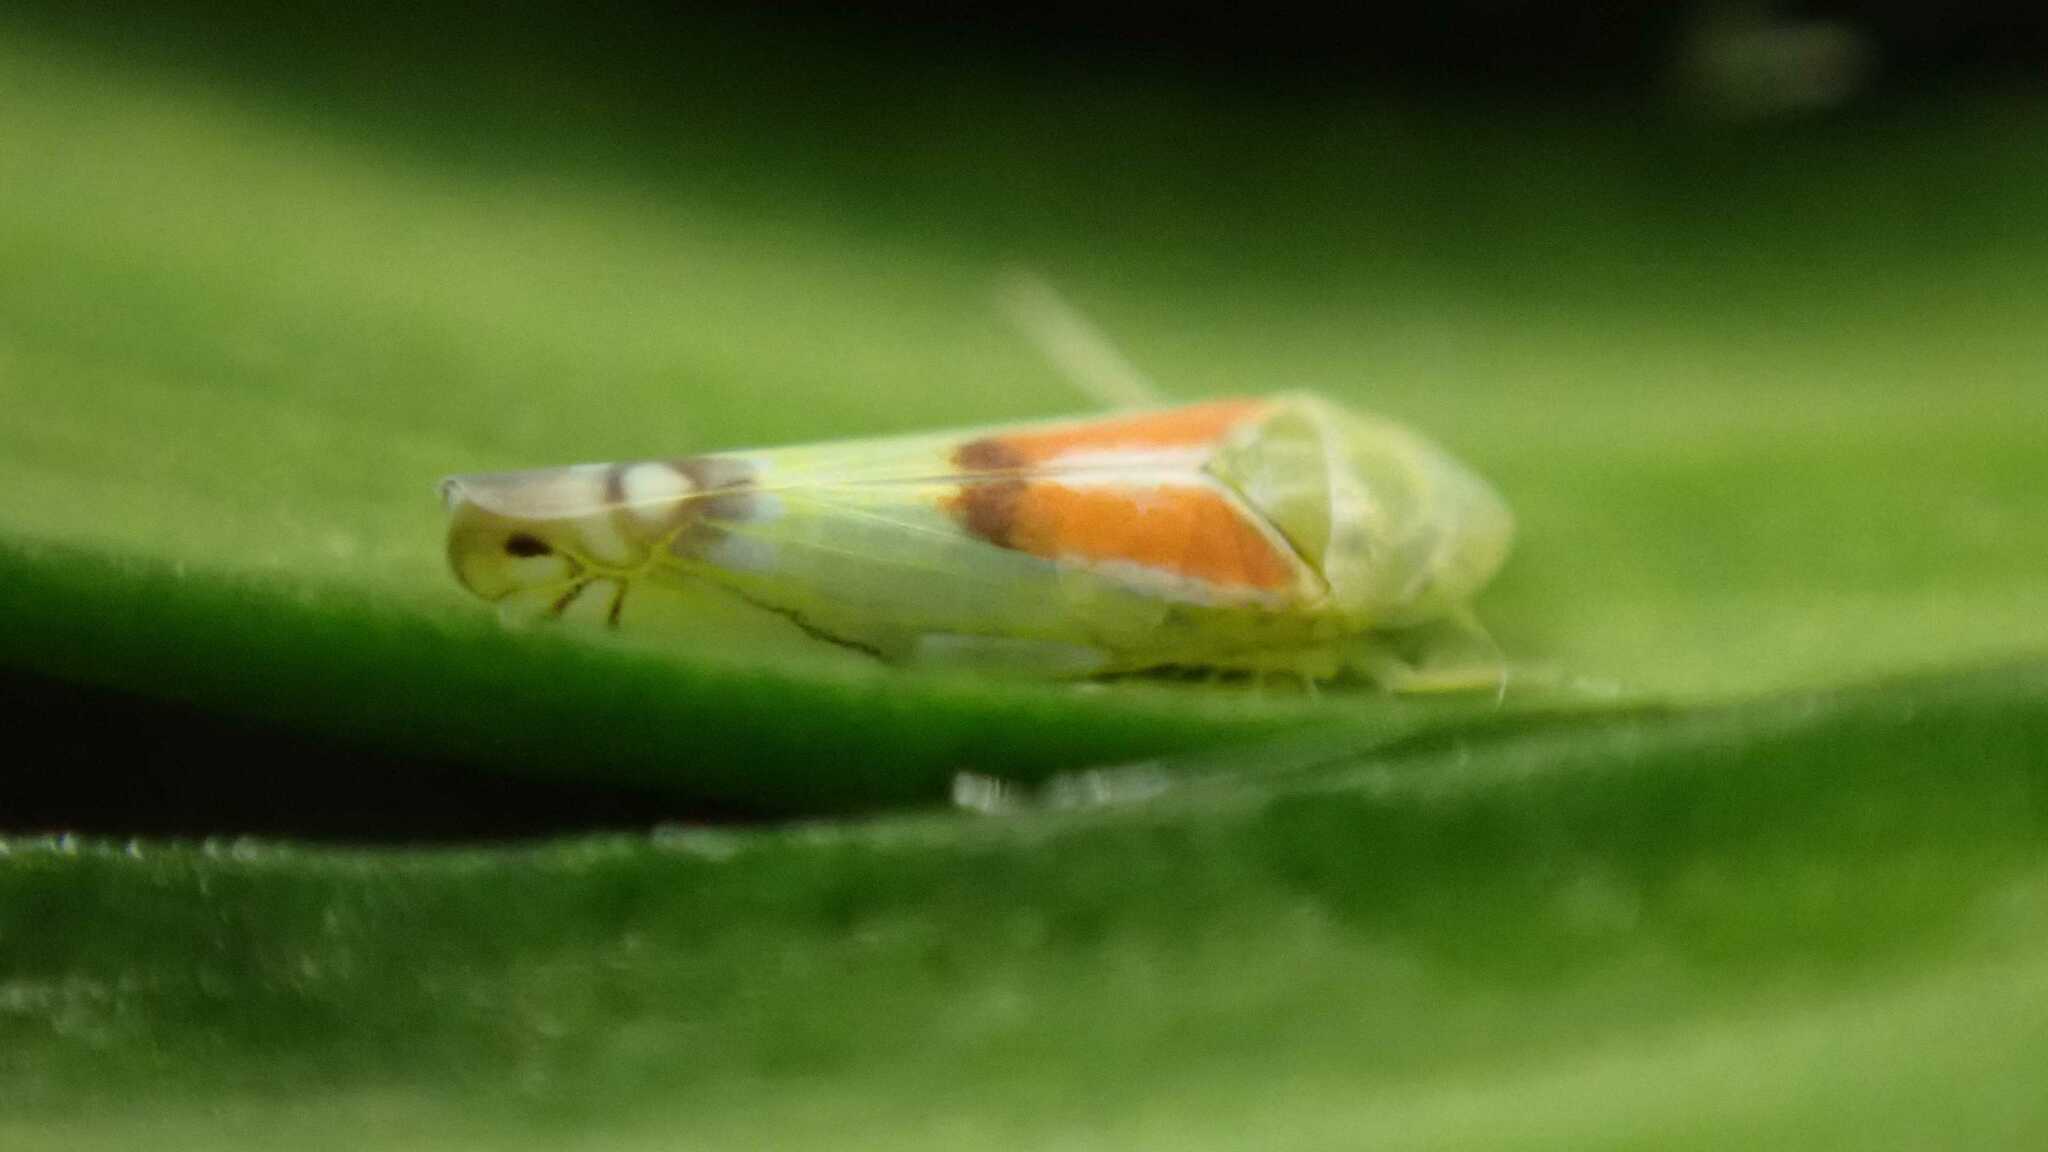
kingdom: Animalia
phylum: Arthropoda
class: Insecta
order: Hemiptera
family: Cicadellidae
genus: Zyginella
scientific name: Zyginella pulchra
